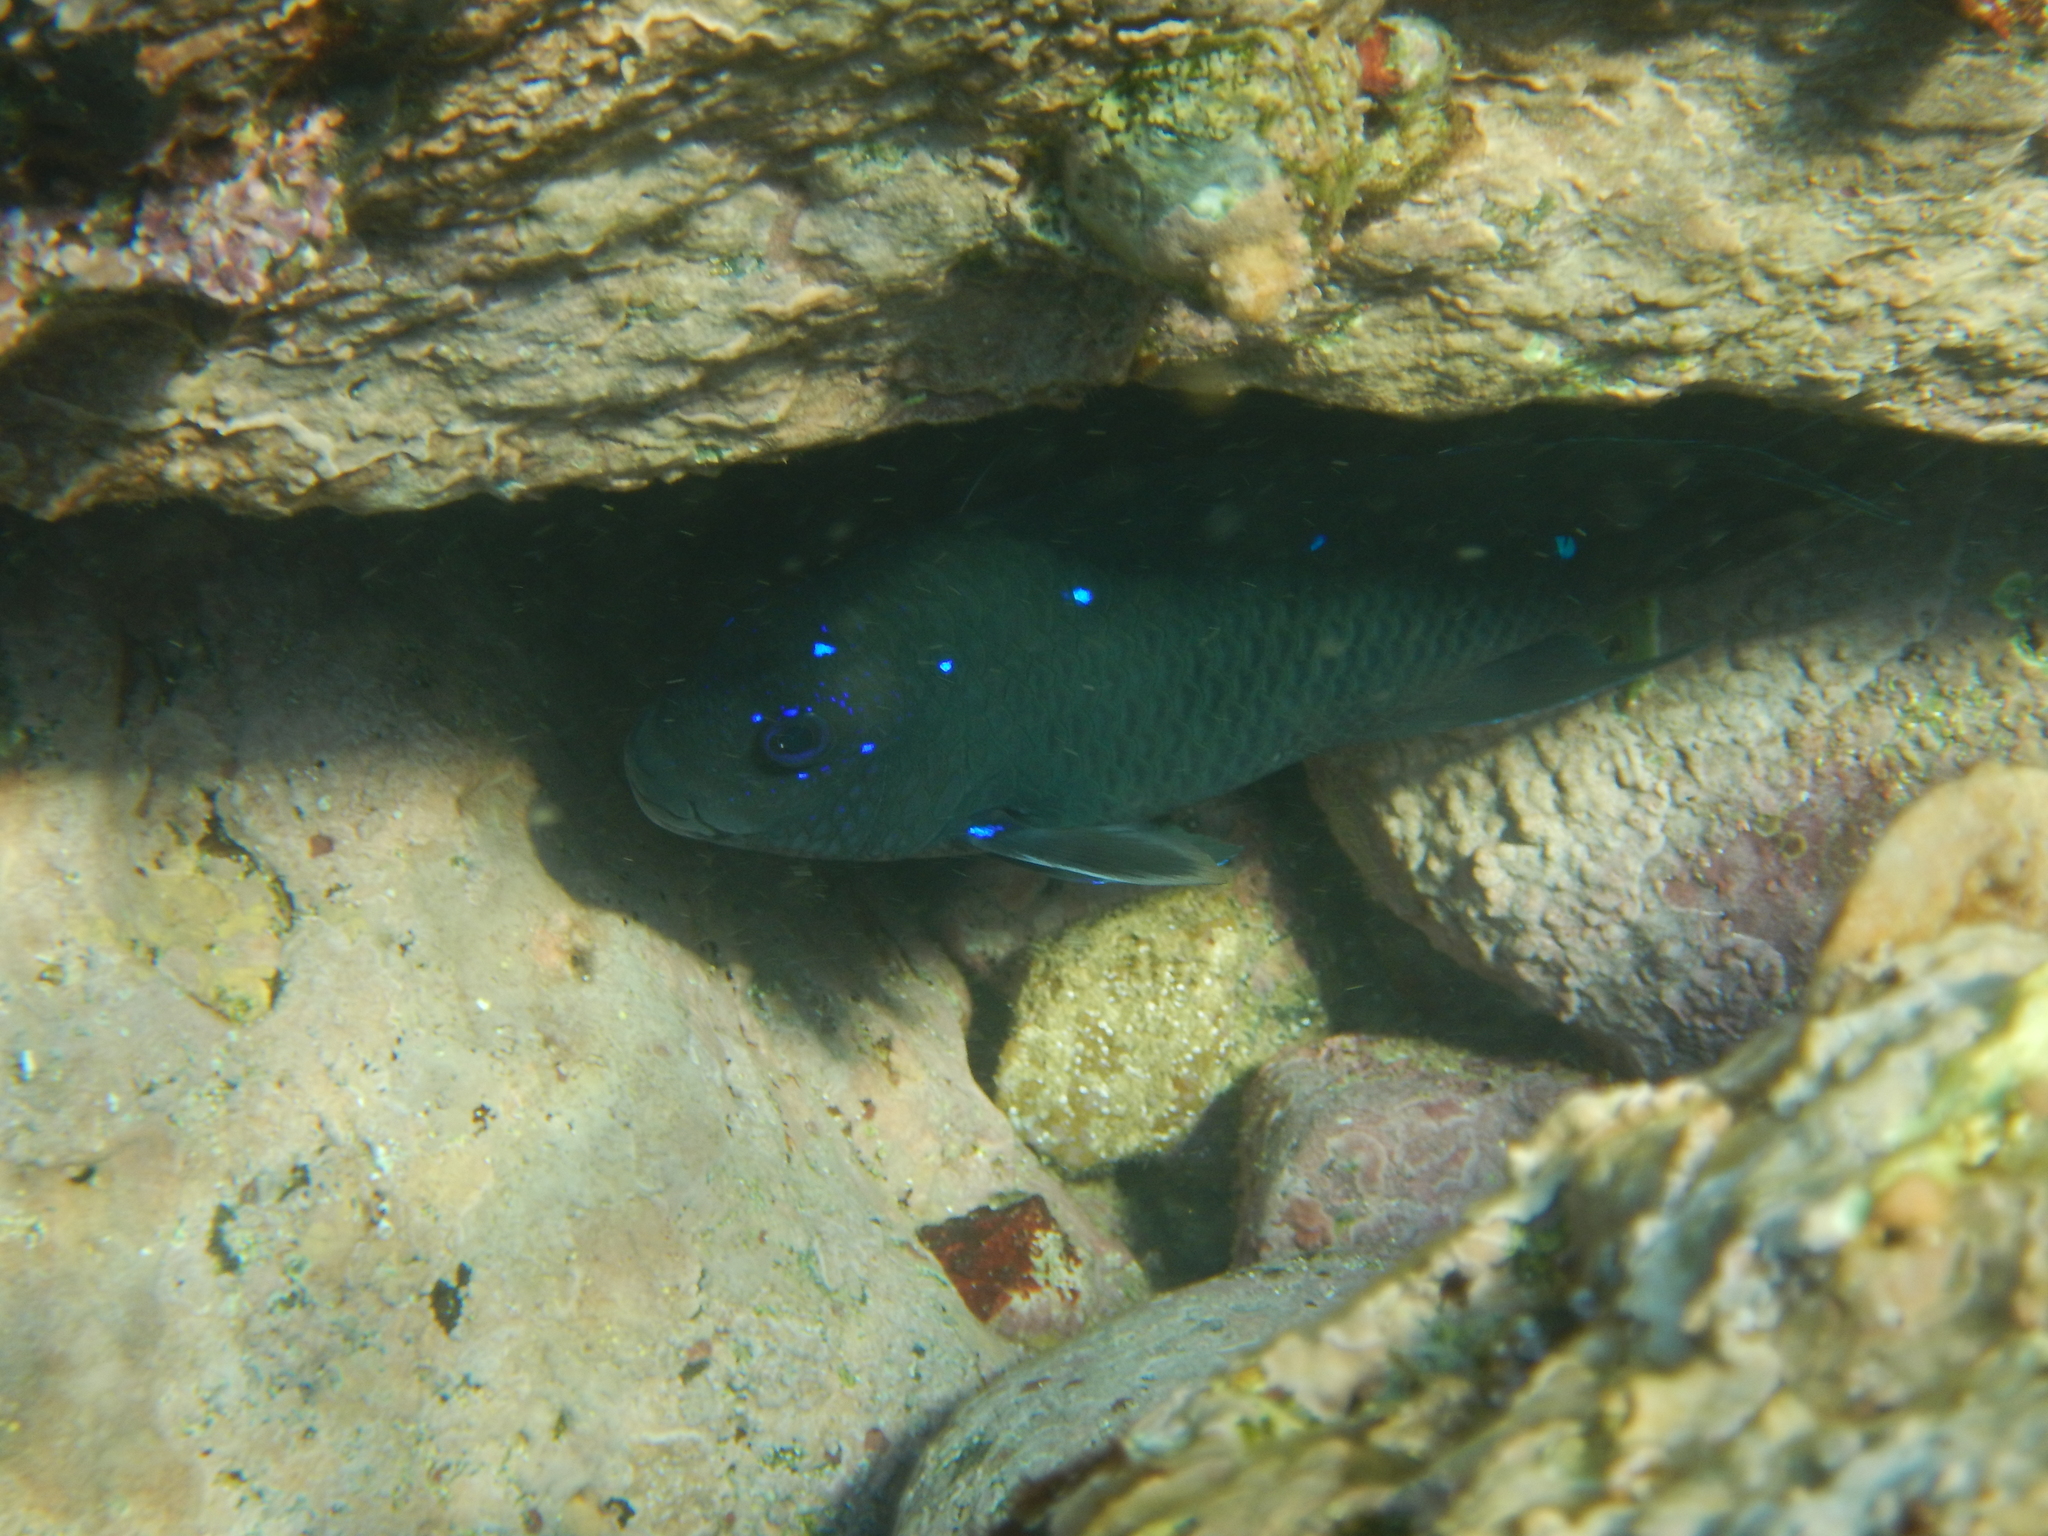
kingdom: Animalia
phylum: Chordata
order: Perciformes
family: Pomacentridae
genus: Microspathodon
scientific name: Microspathodon dorsalis
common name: Giant damselfish
